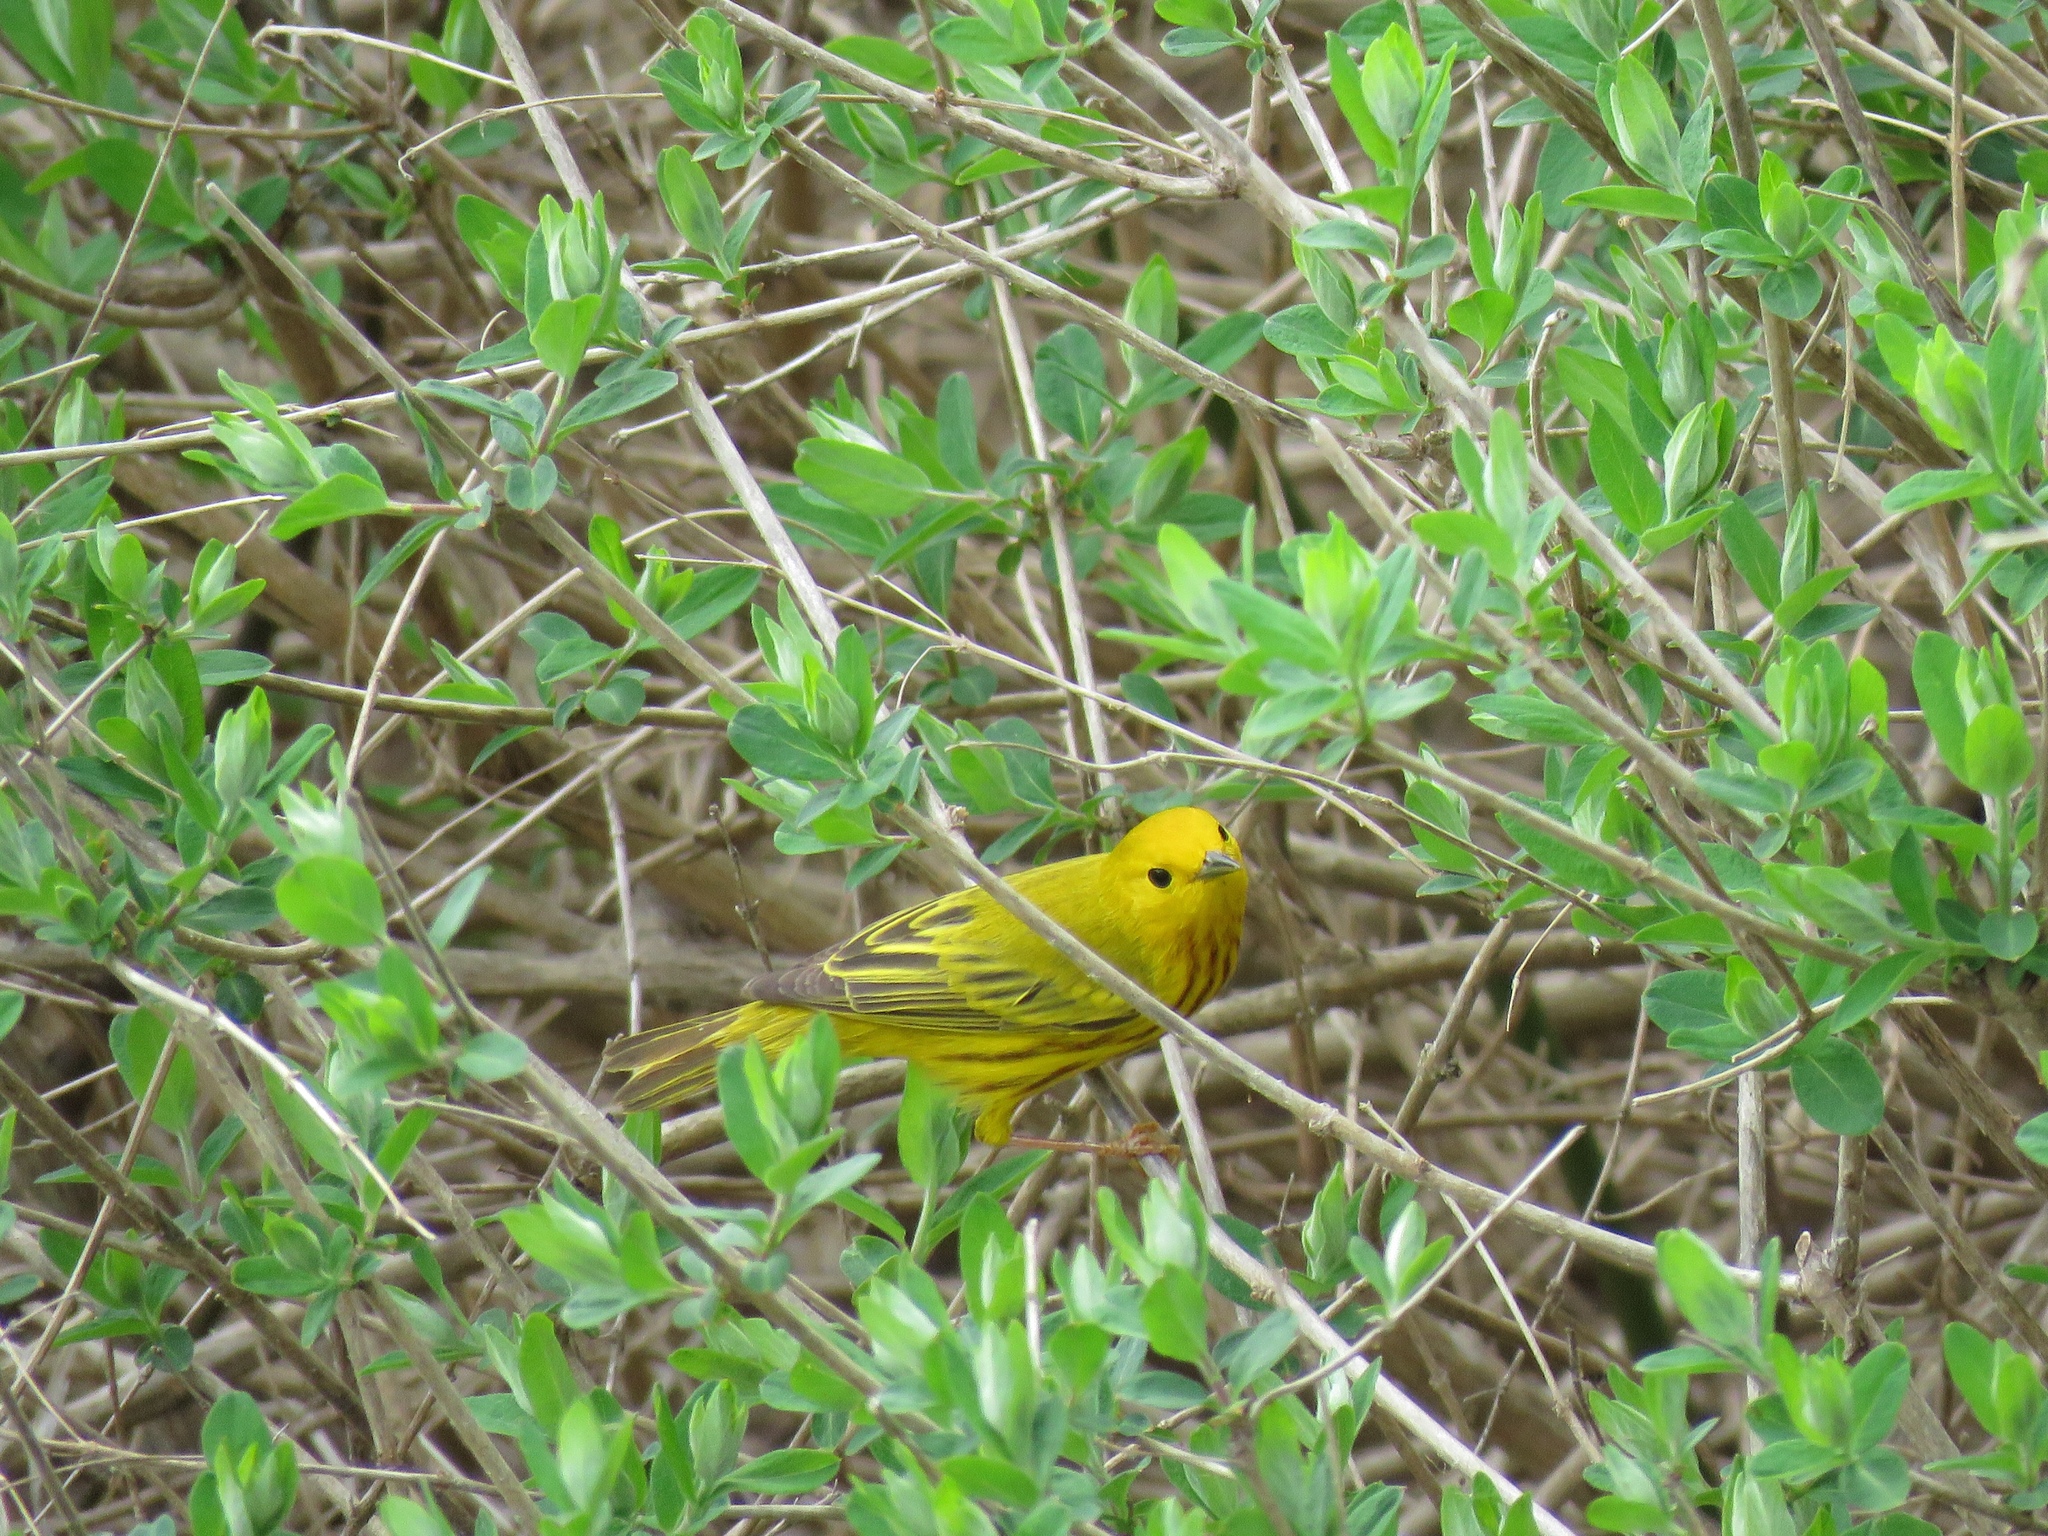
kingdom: Animalia
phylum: Chordata
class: Aves
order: Passeriformes
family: Parulidae
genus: Setophaga
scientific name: Setophaga petechia
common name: Yellow warbler
